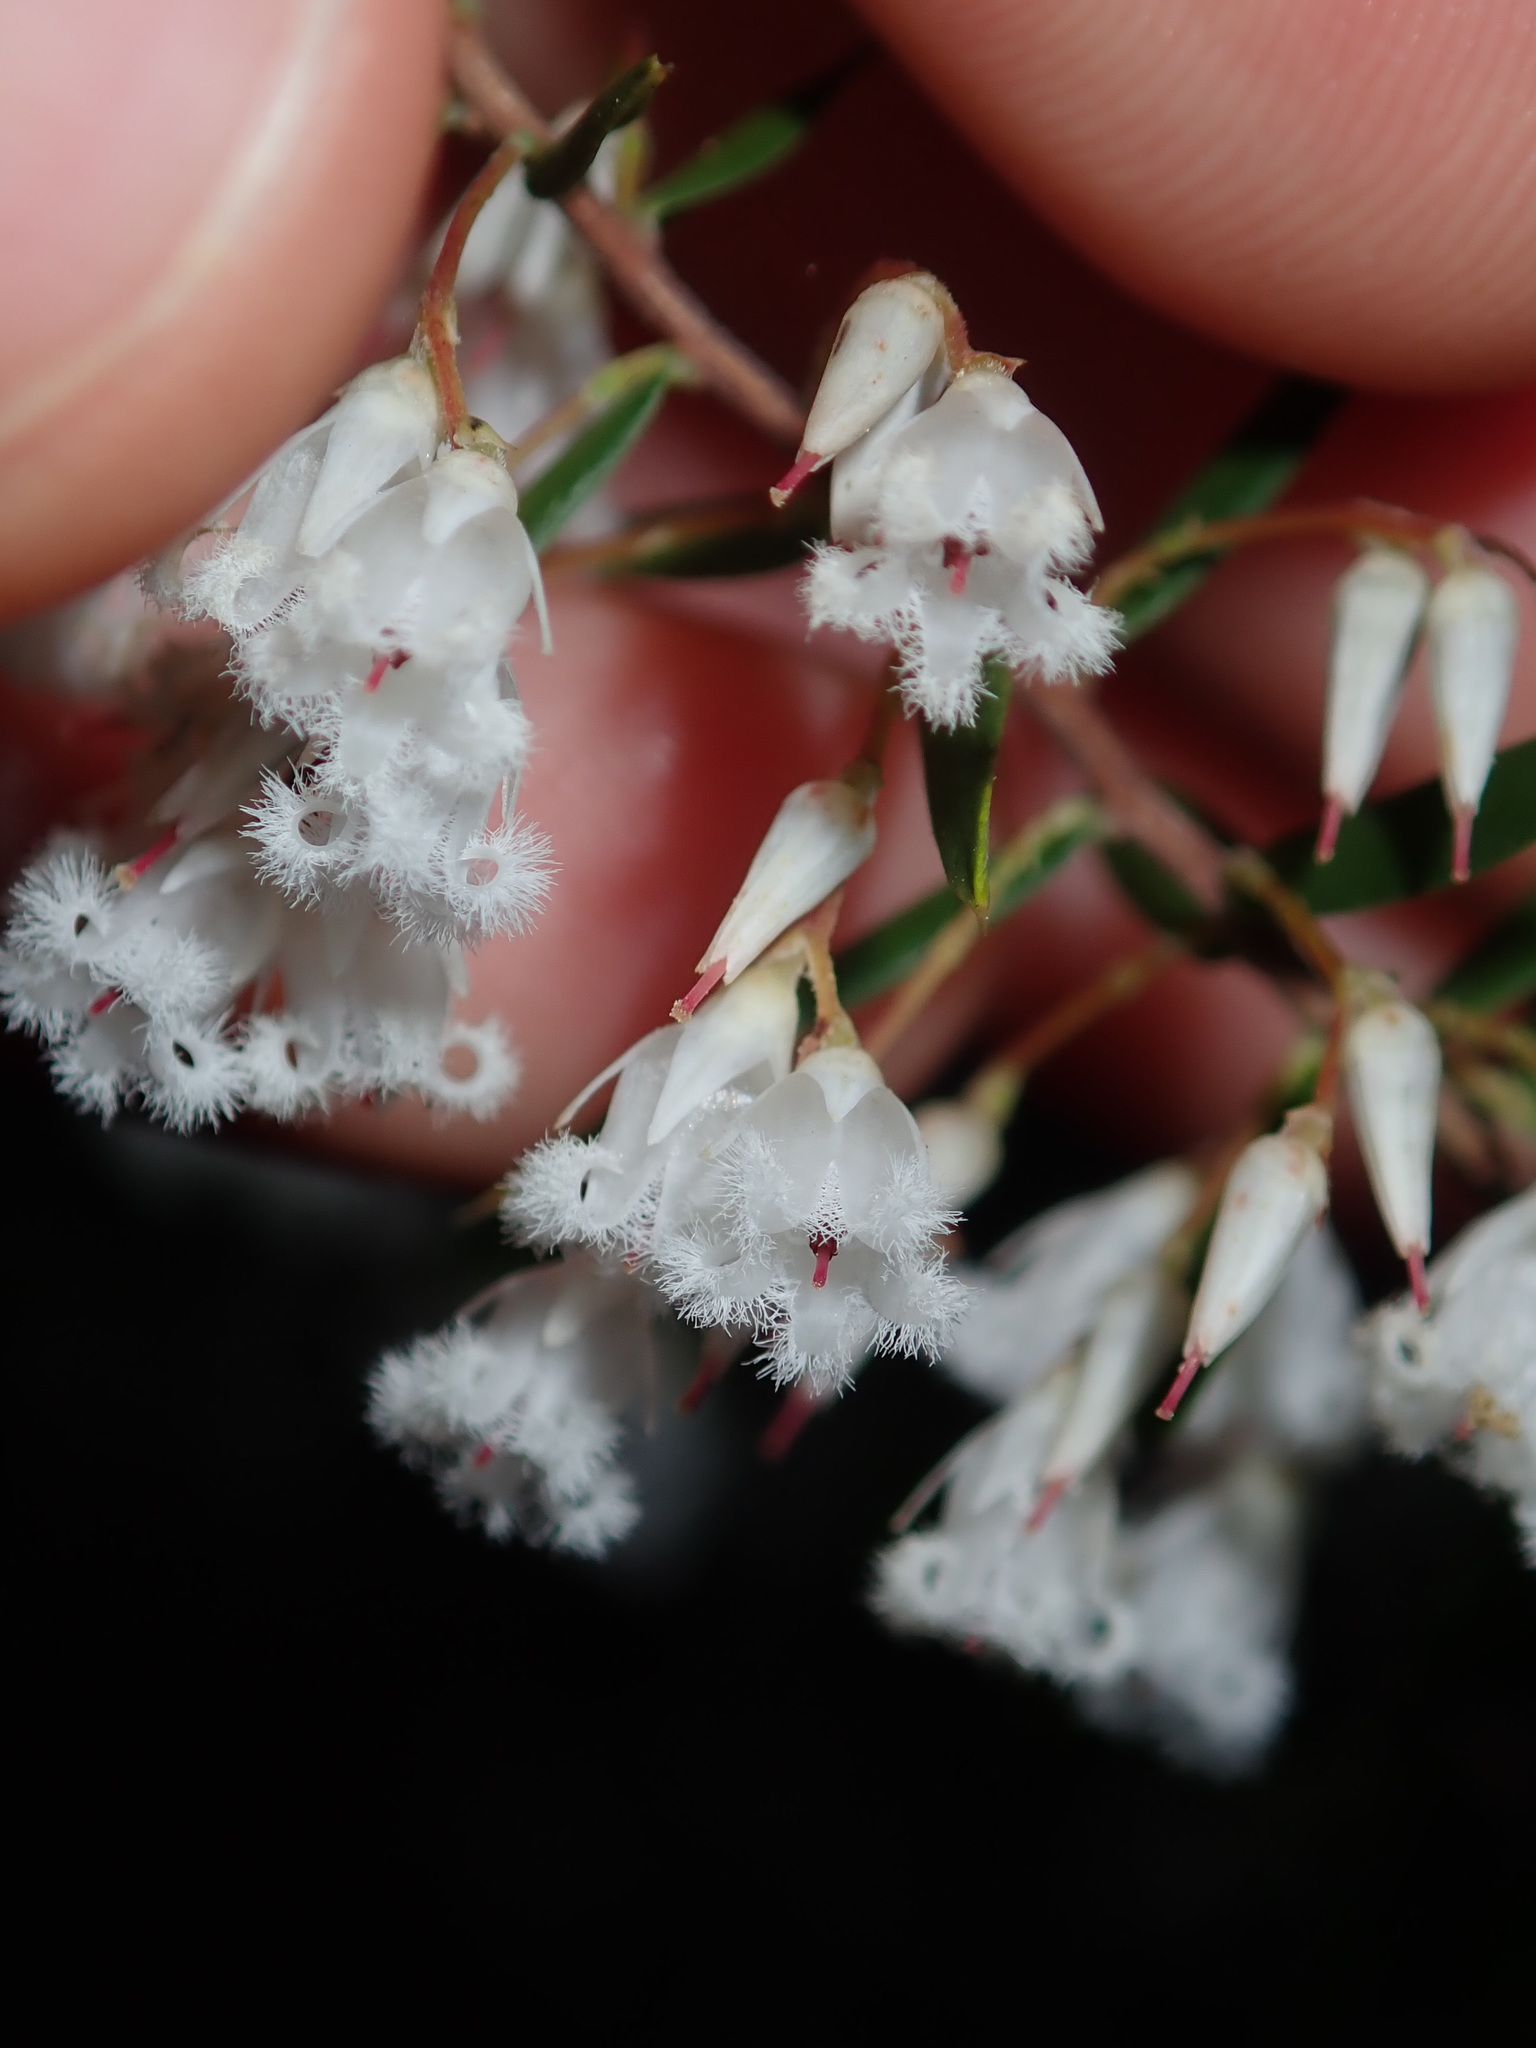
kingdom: Plantae
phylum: Tracheophyta
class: Magnoliopsida
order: Ericales
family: Ericaceae
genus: Styphelia
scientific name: Styphelia setigera
